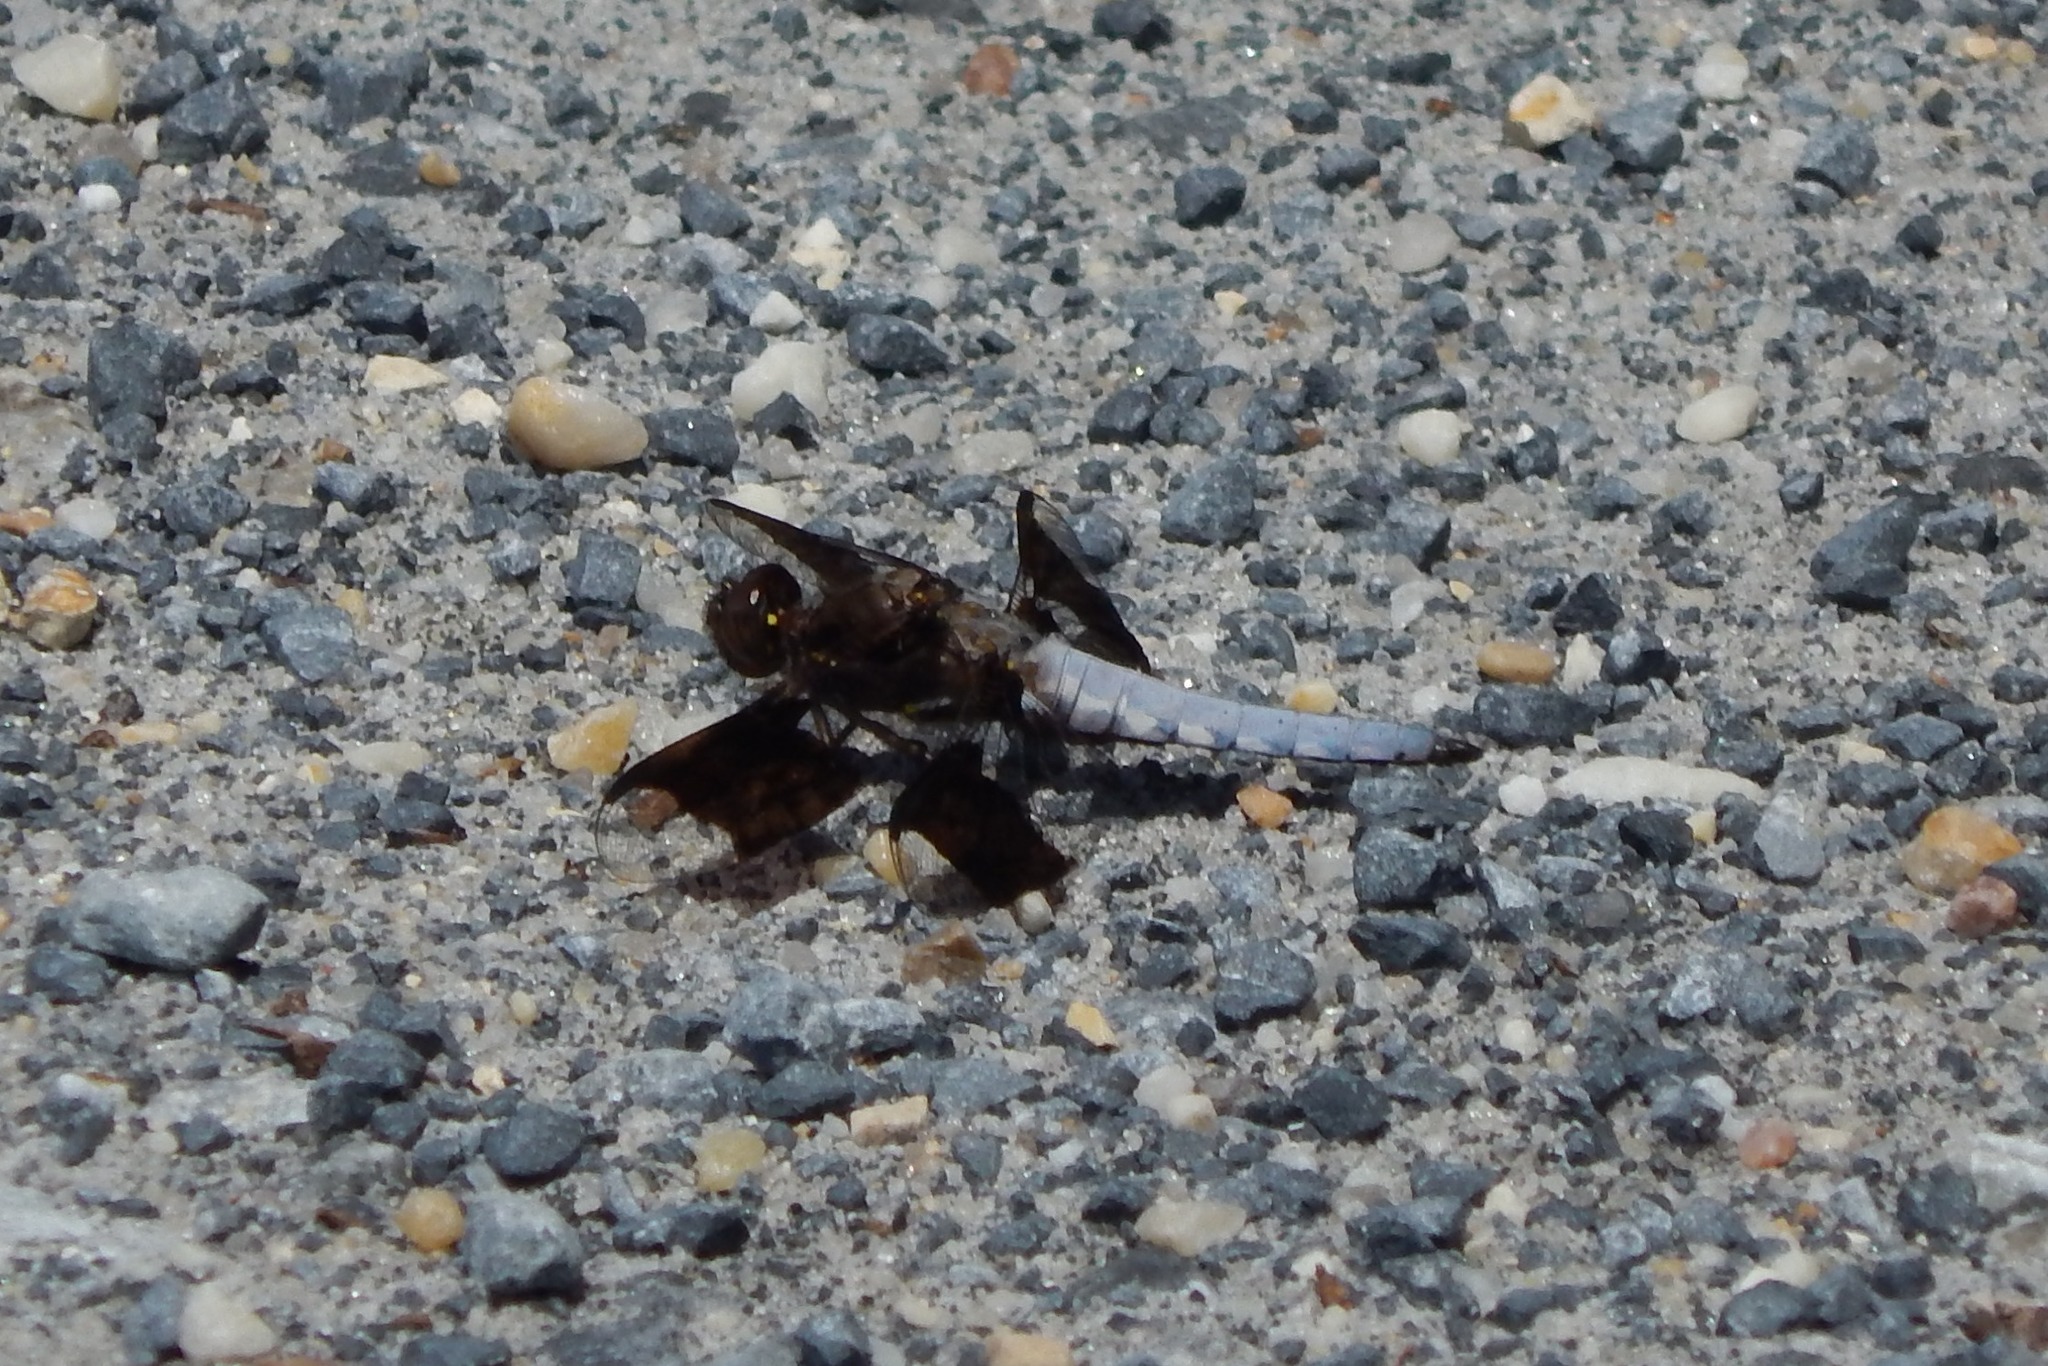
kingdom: Animalia
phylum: Arthropoda
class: Insecta
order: Odonata
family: Libellulidae
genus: Plathemis
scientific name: Plathemis lydia
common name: Common whitetail
